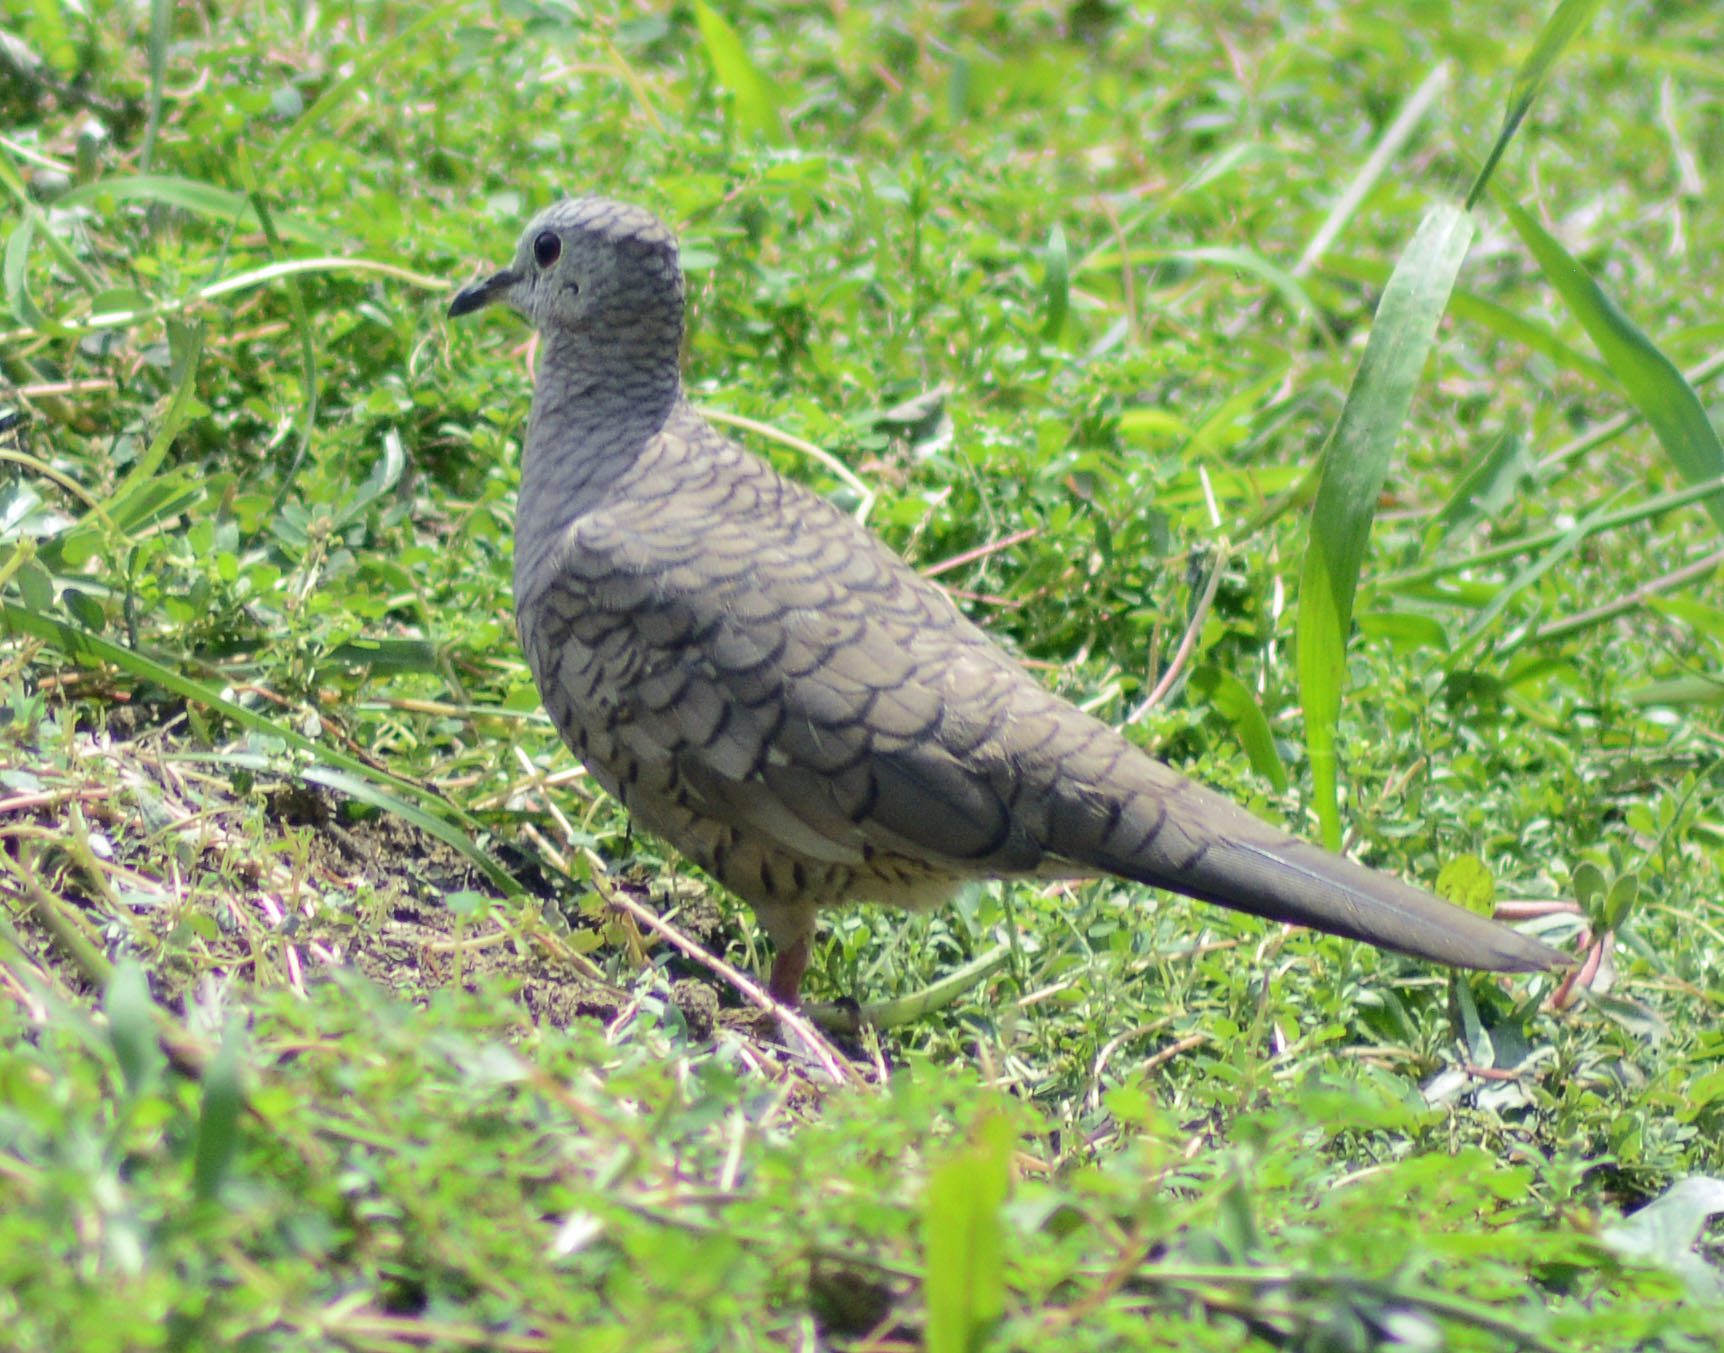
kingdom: Animalia
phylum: Chordata
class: Aves
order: Columbiformes
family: Columbidae
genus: Columbina
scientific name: Columbina inca
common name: Inca dove
